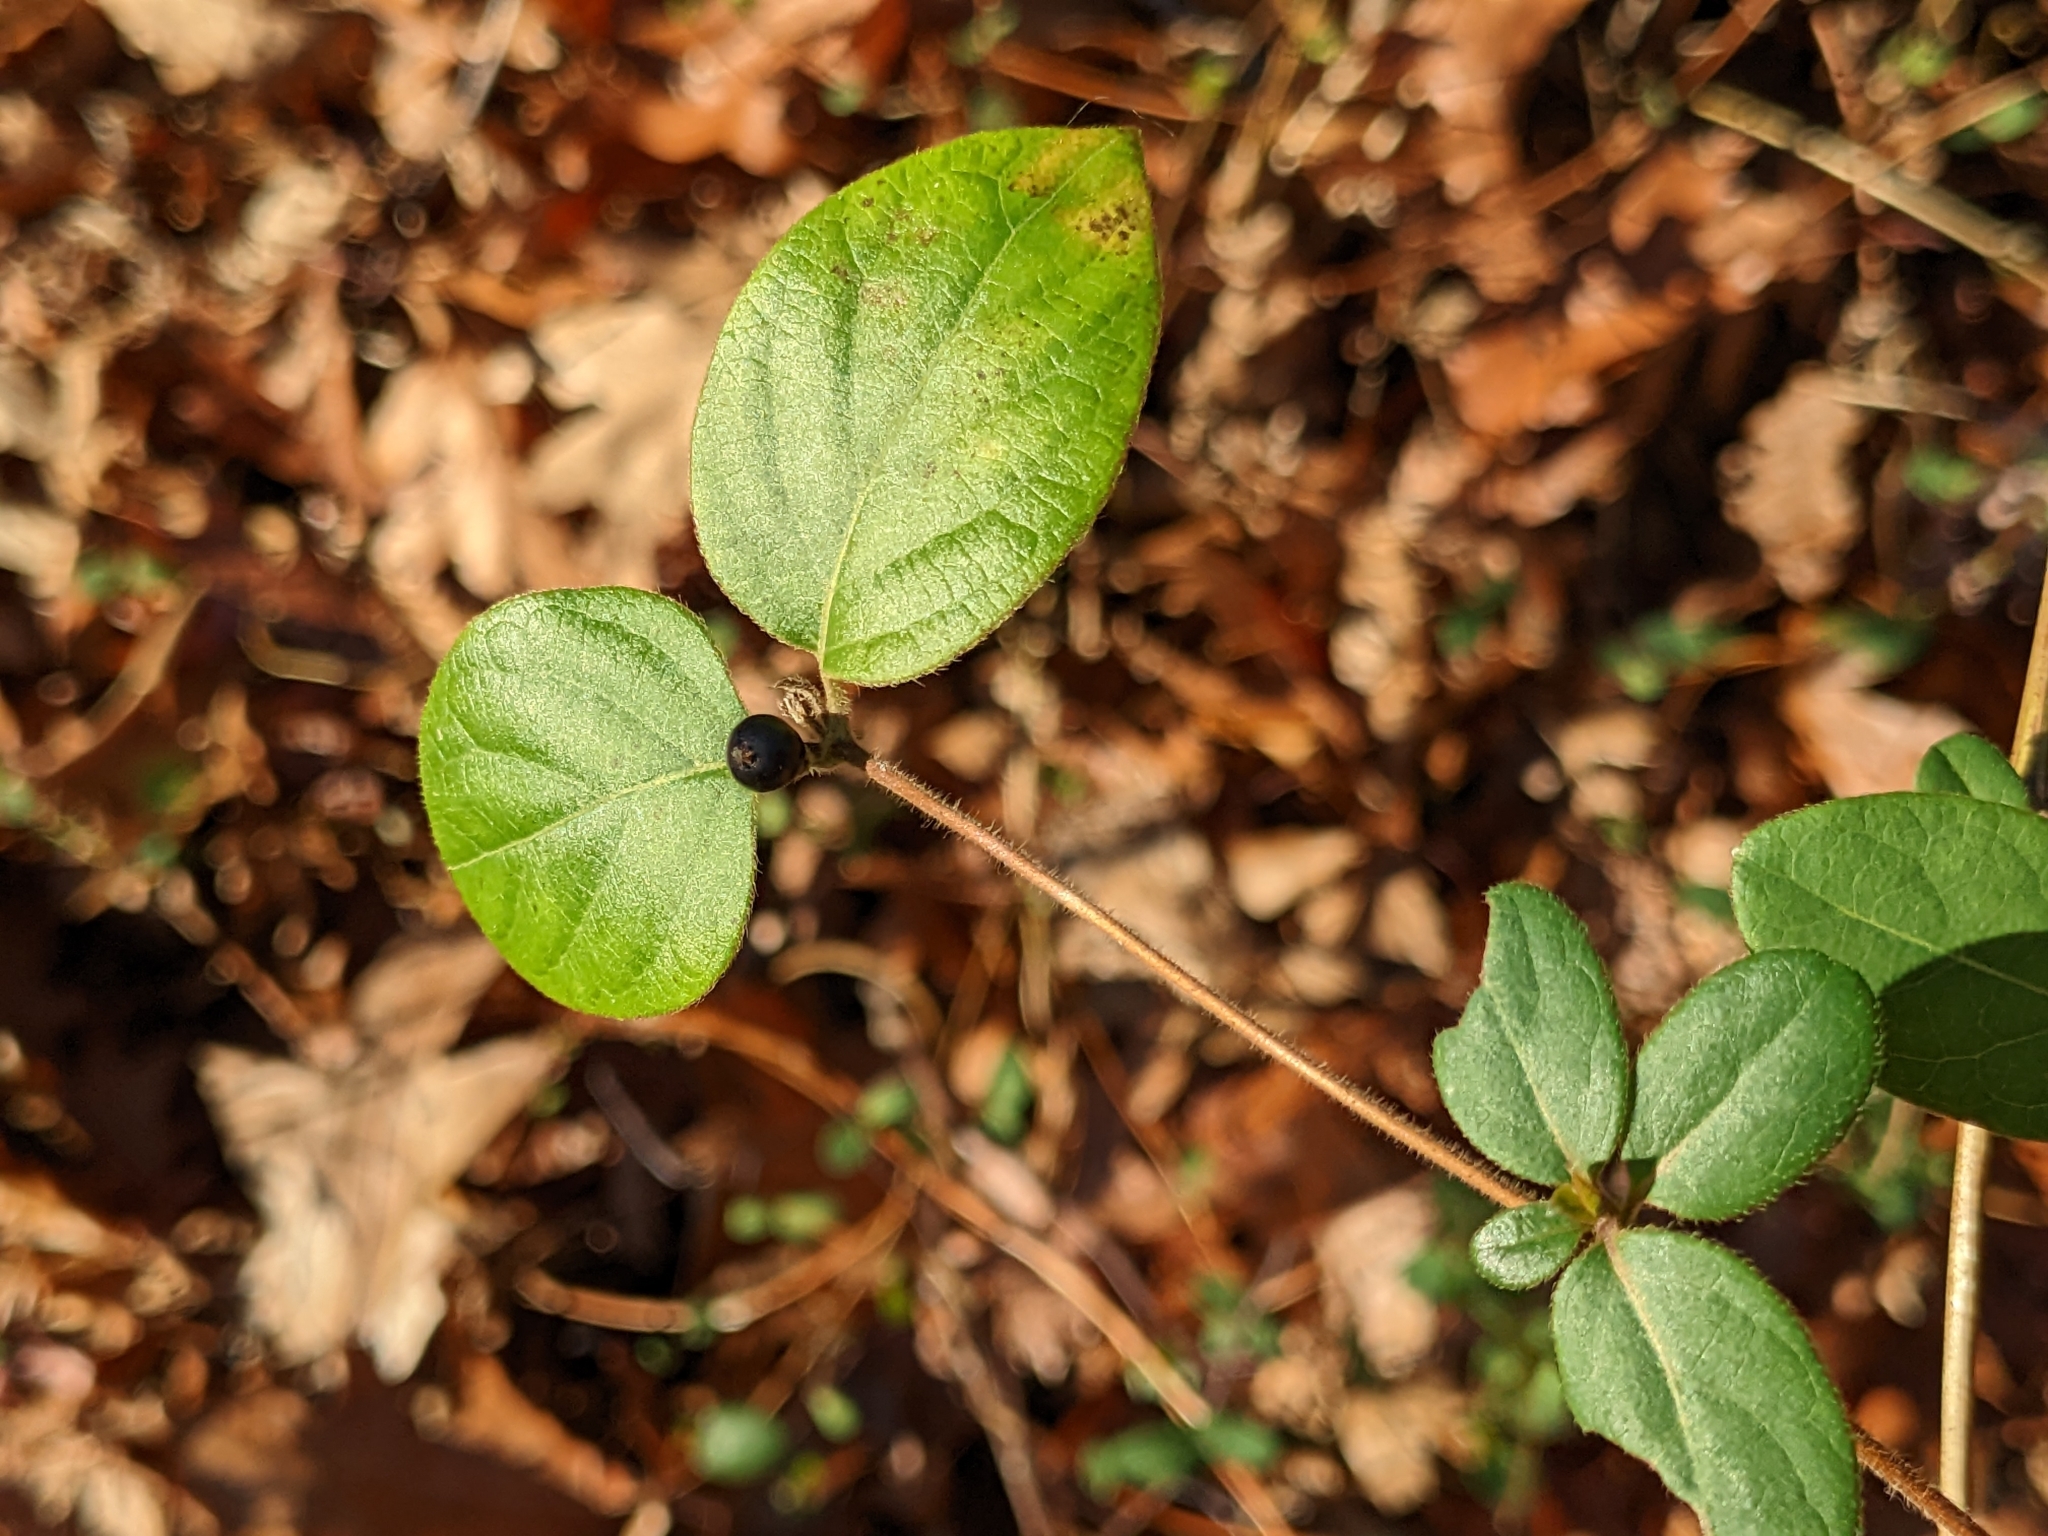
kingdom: Plantae
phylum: Tracheophyta
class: Magnoliopsida
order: Dipsacales
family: Caprifoliaceae
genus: Lonicera
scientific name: Lonicera japonica
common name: Japanese honeysuckle
